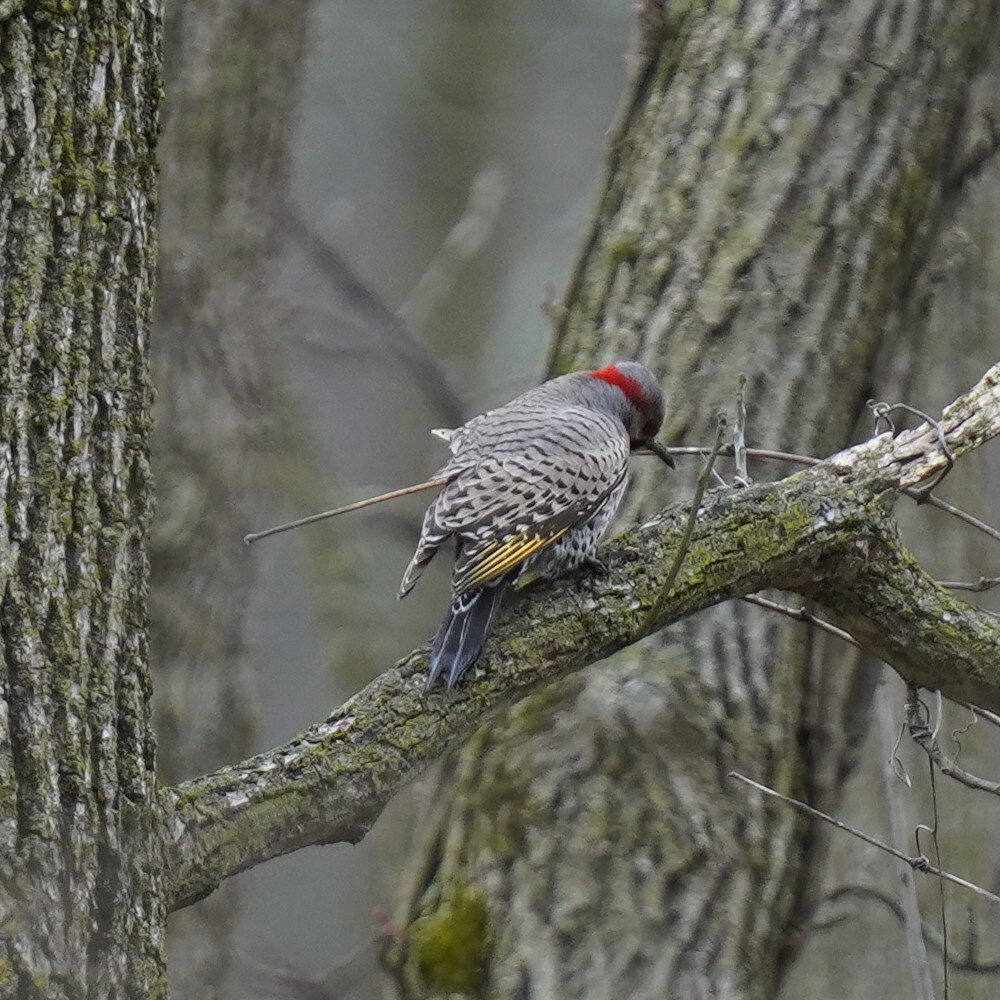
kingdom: Animalia
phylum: Chordata
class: Aves
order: Piciformes
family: Picidae
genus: Colaptes
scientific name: Colaptes auratus
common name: Northern flicker
